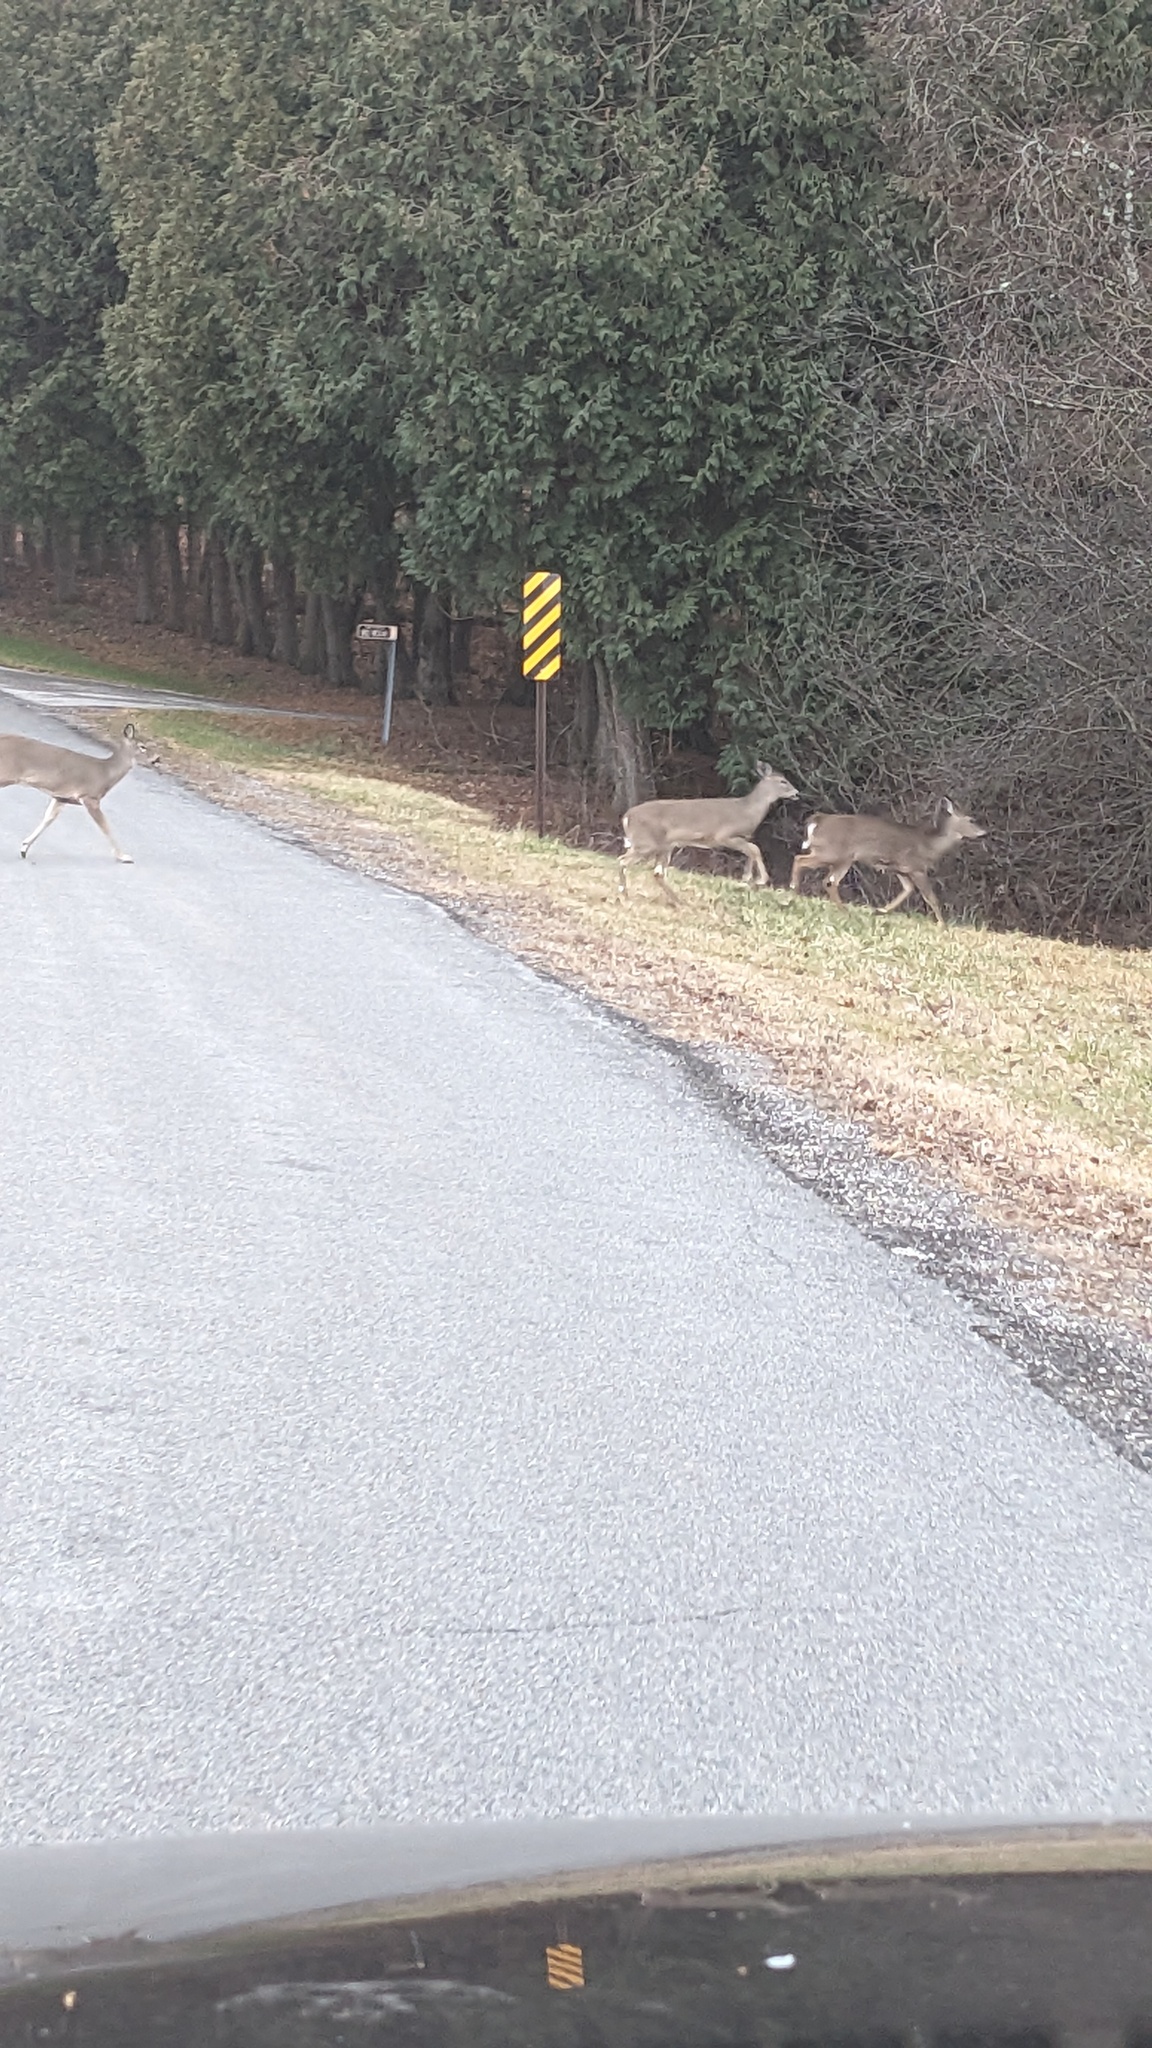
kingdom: Animalia
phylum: Chordata
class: Mammalia
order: Artiodactyla
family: Cervidae
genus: Odocoileus
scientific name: Odocoileus virginianus
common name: White-tailed deer
